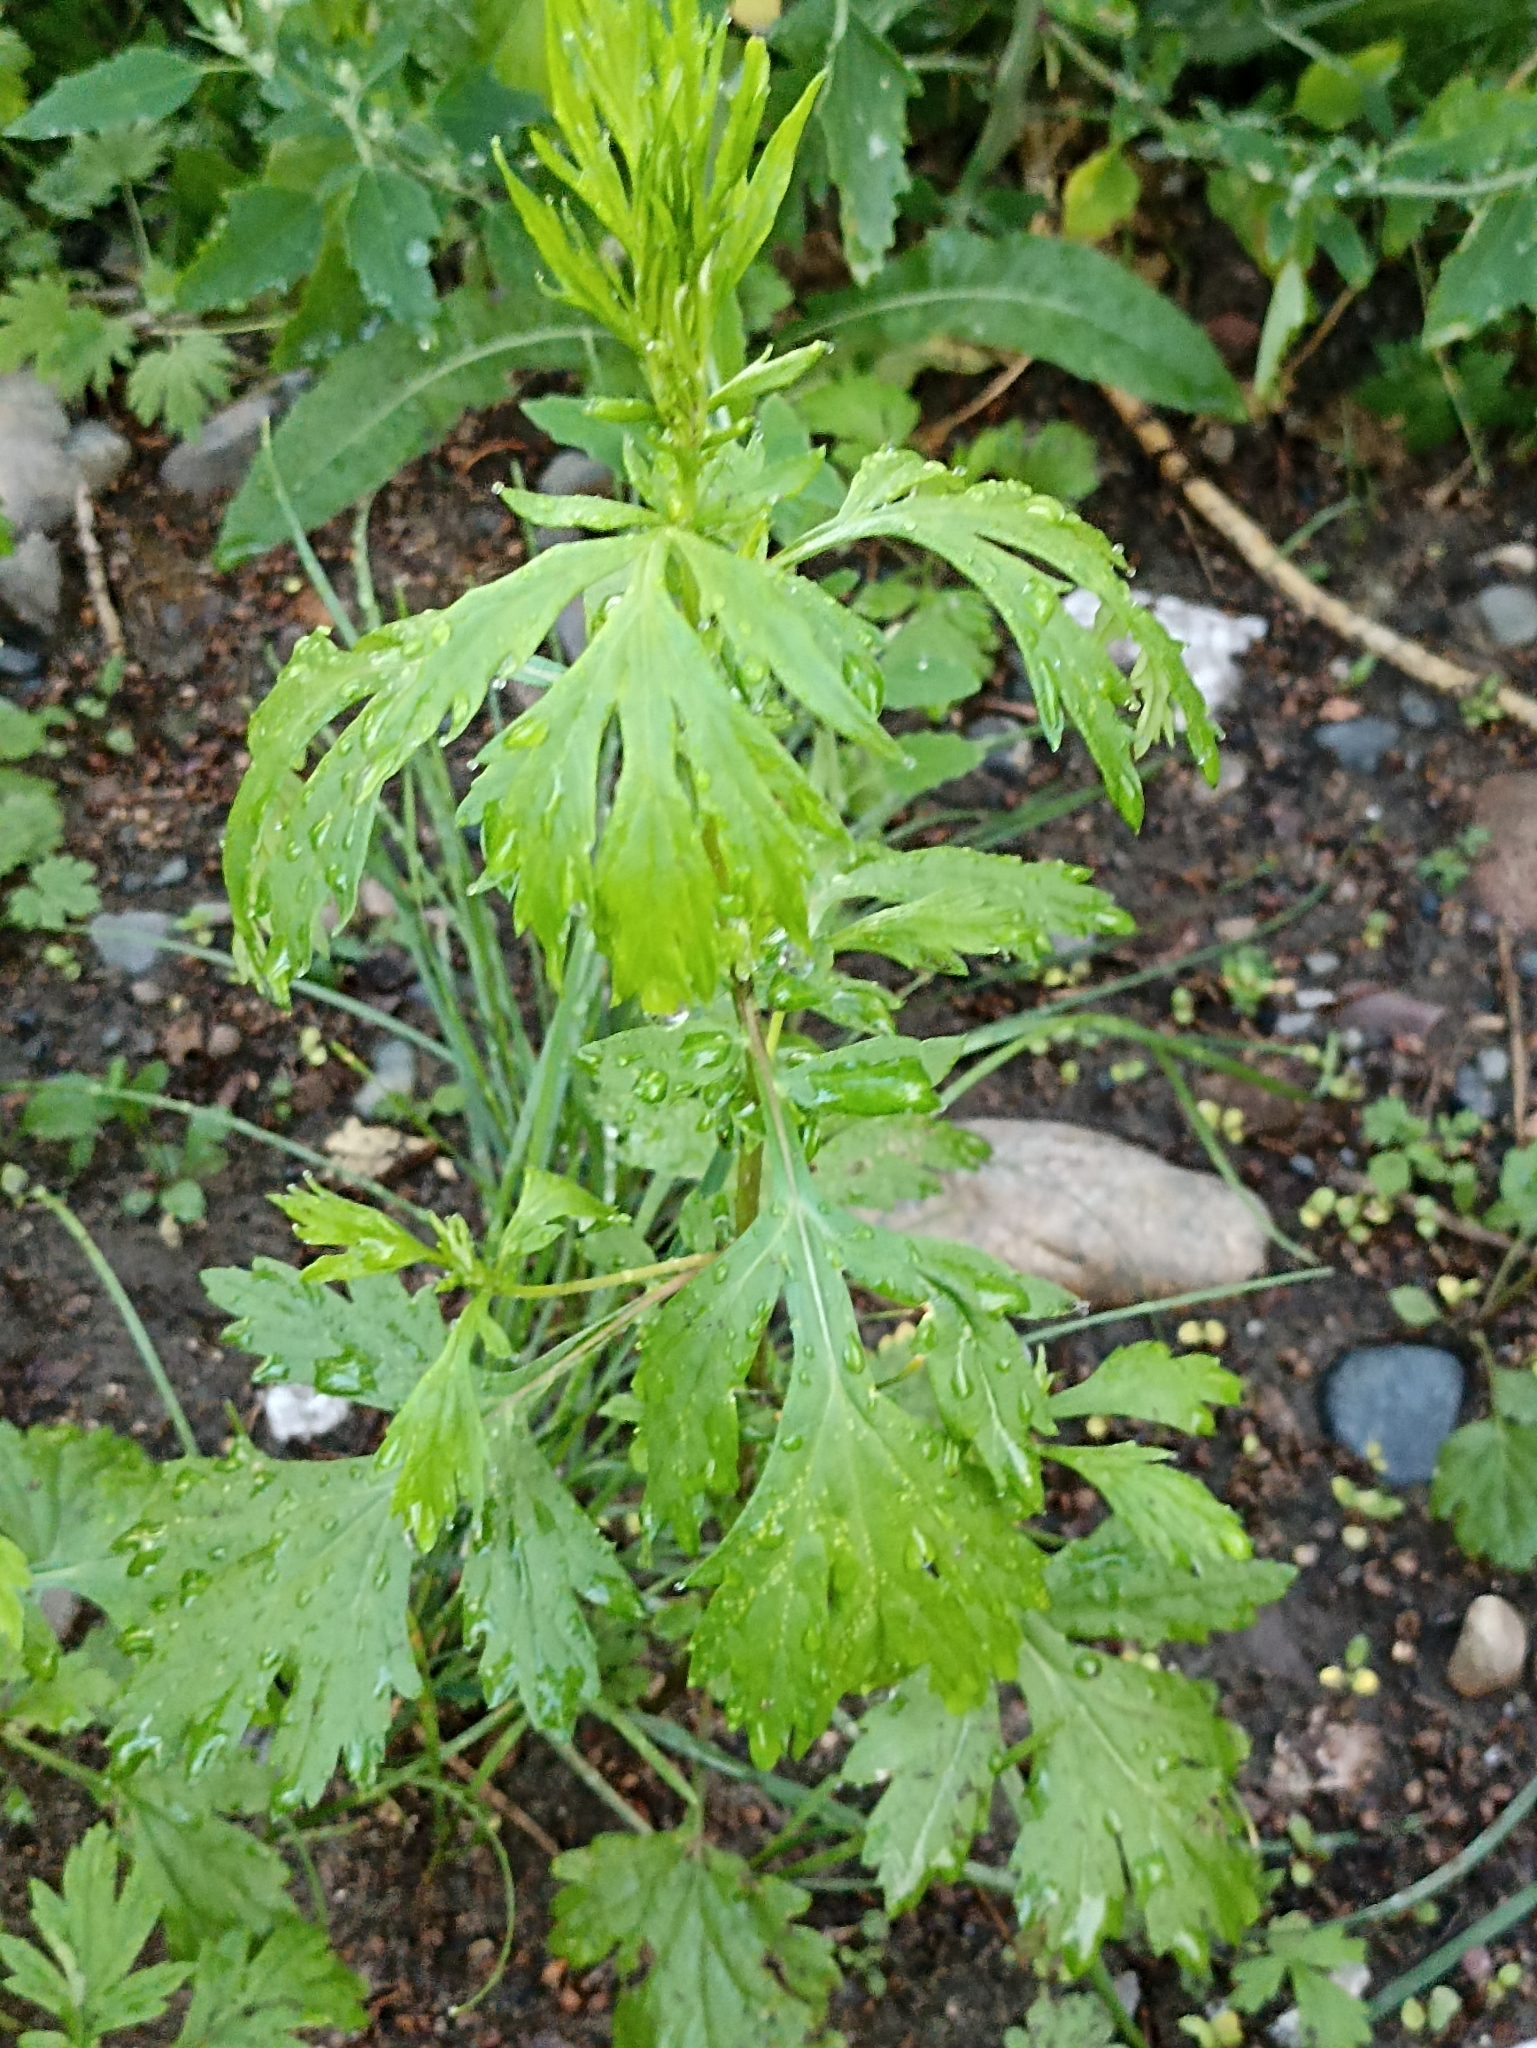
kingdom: Plantae
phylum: Tracheophyta
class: Magnoliopsida
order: Asterales
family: Asteraceae
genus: Artemisia
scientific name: Artemisia vulgaris
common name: Mugwort
